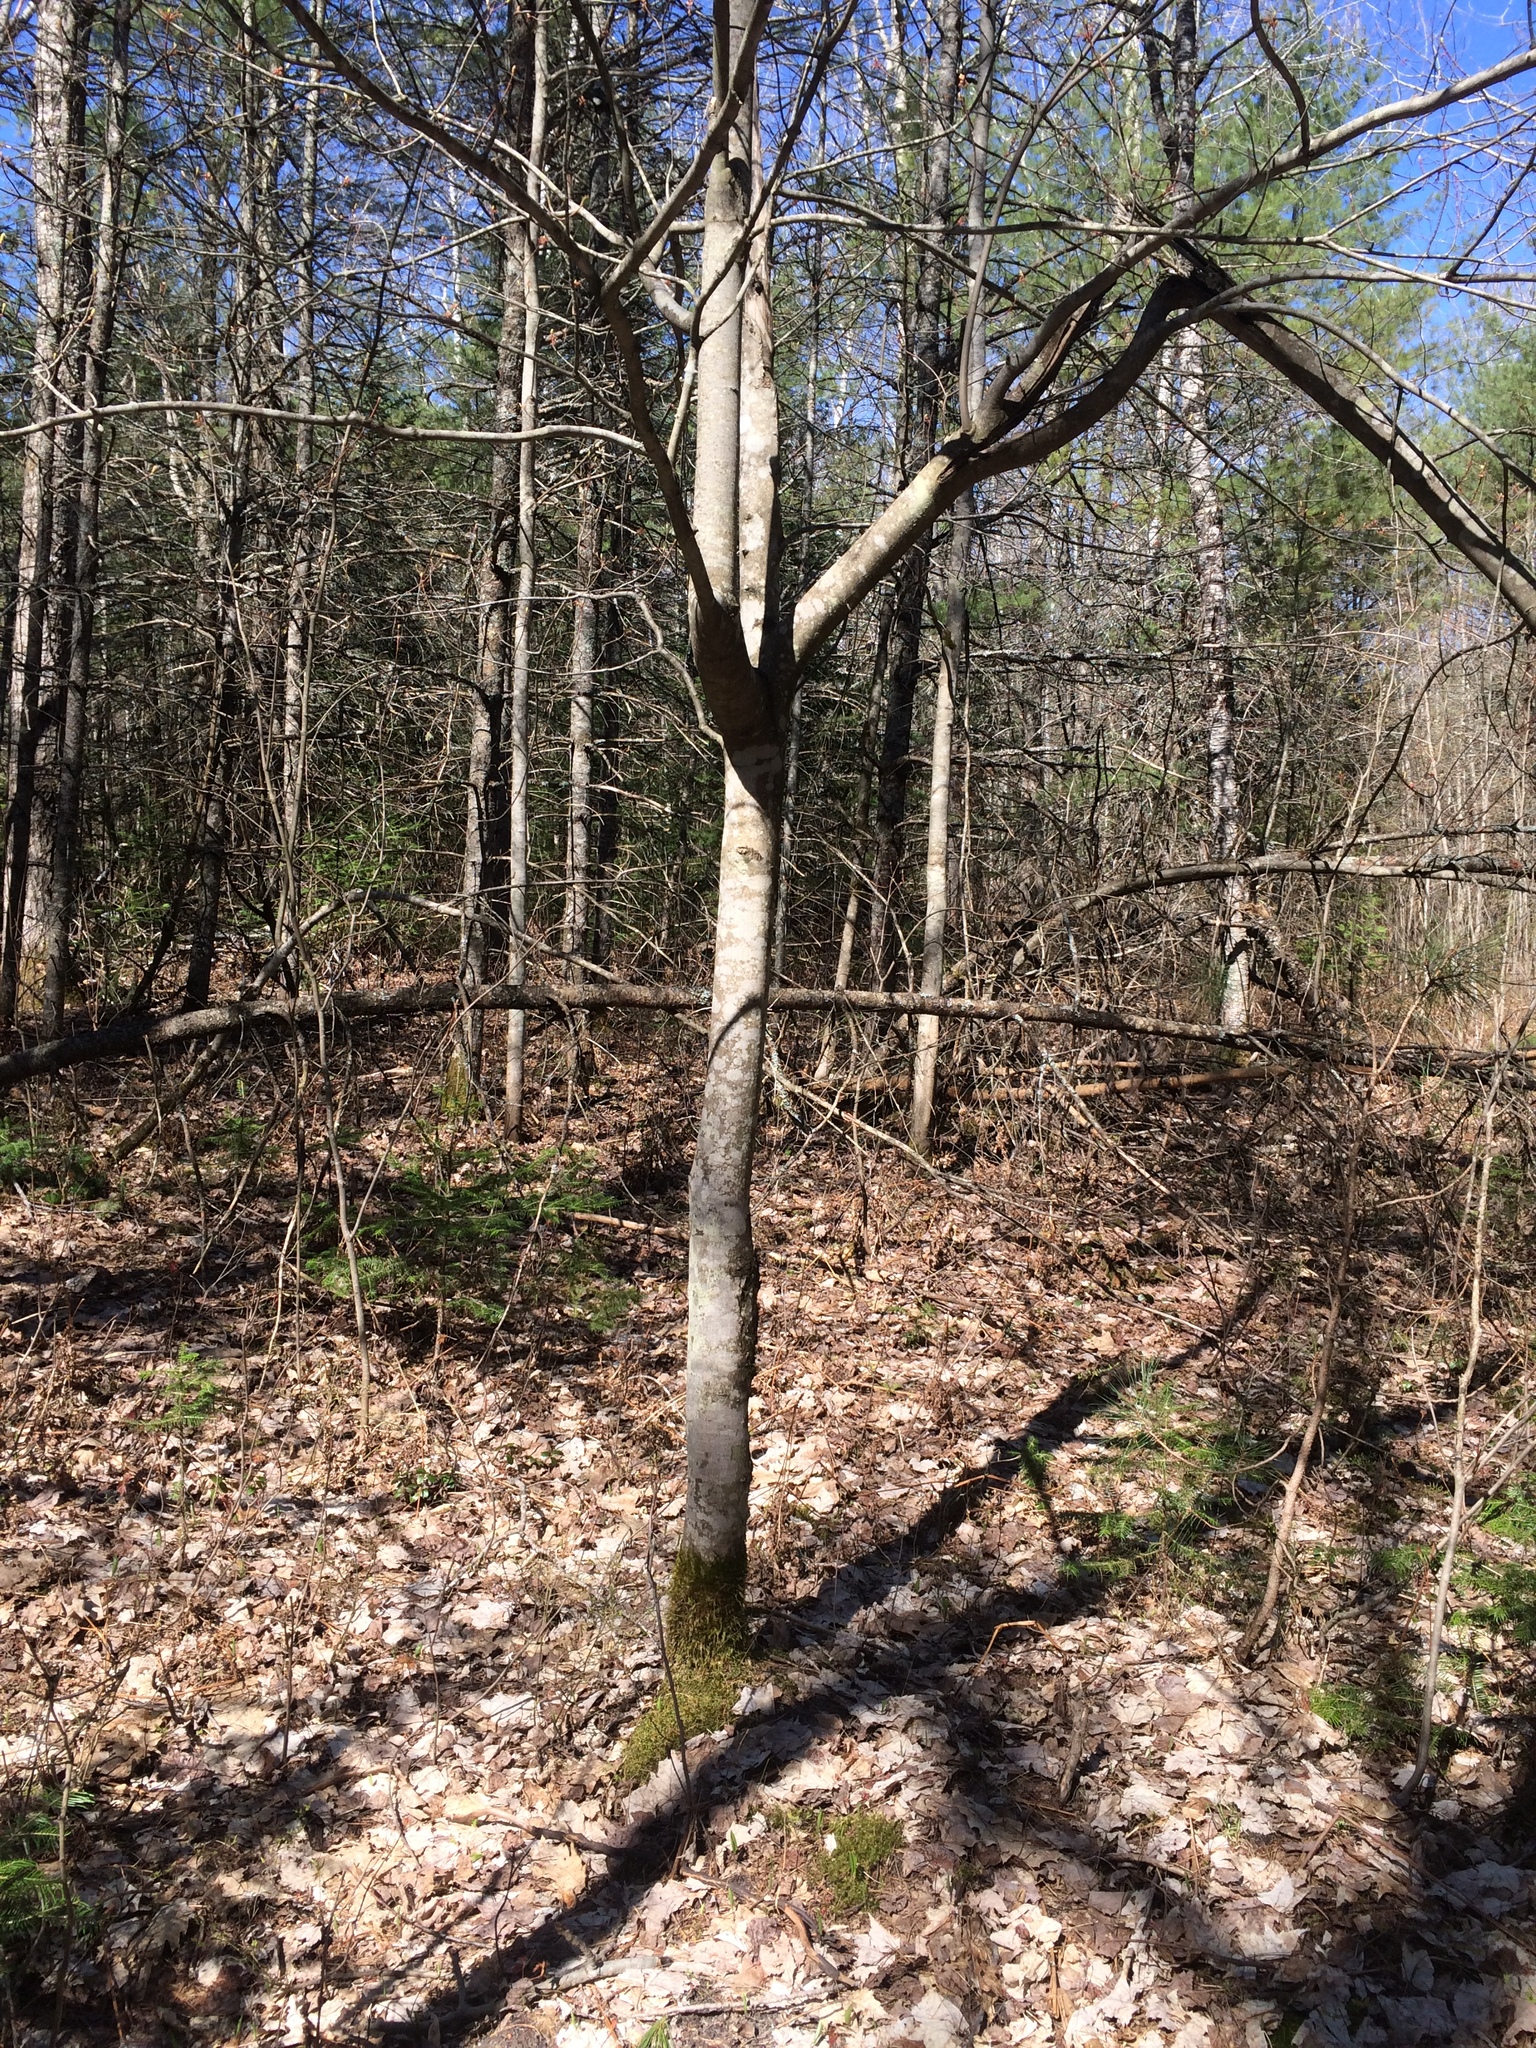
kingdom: Plantae
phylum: Tracheophyta
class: Magnoliopsida
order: Sapindales
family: Sapindaceae
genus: Acer
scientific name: Acer rubrum
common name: Red maple
